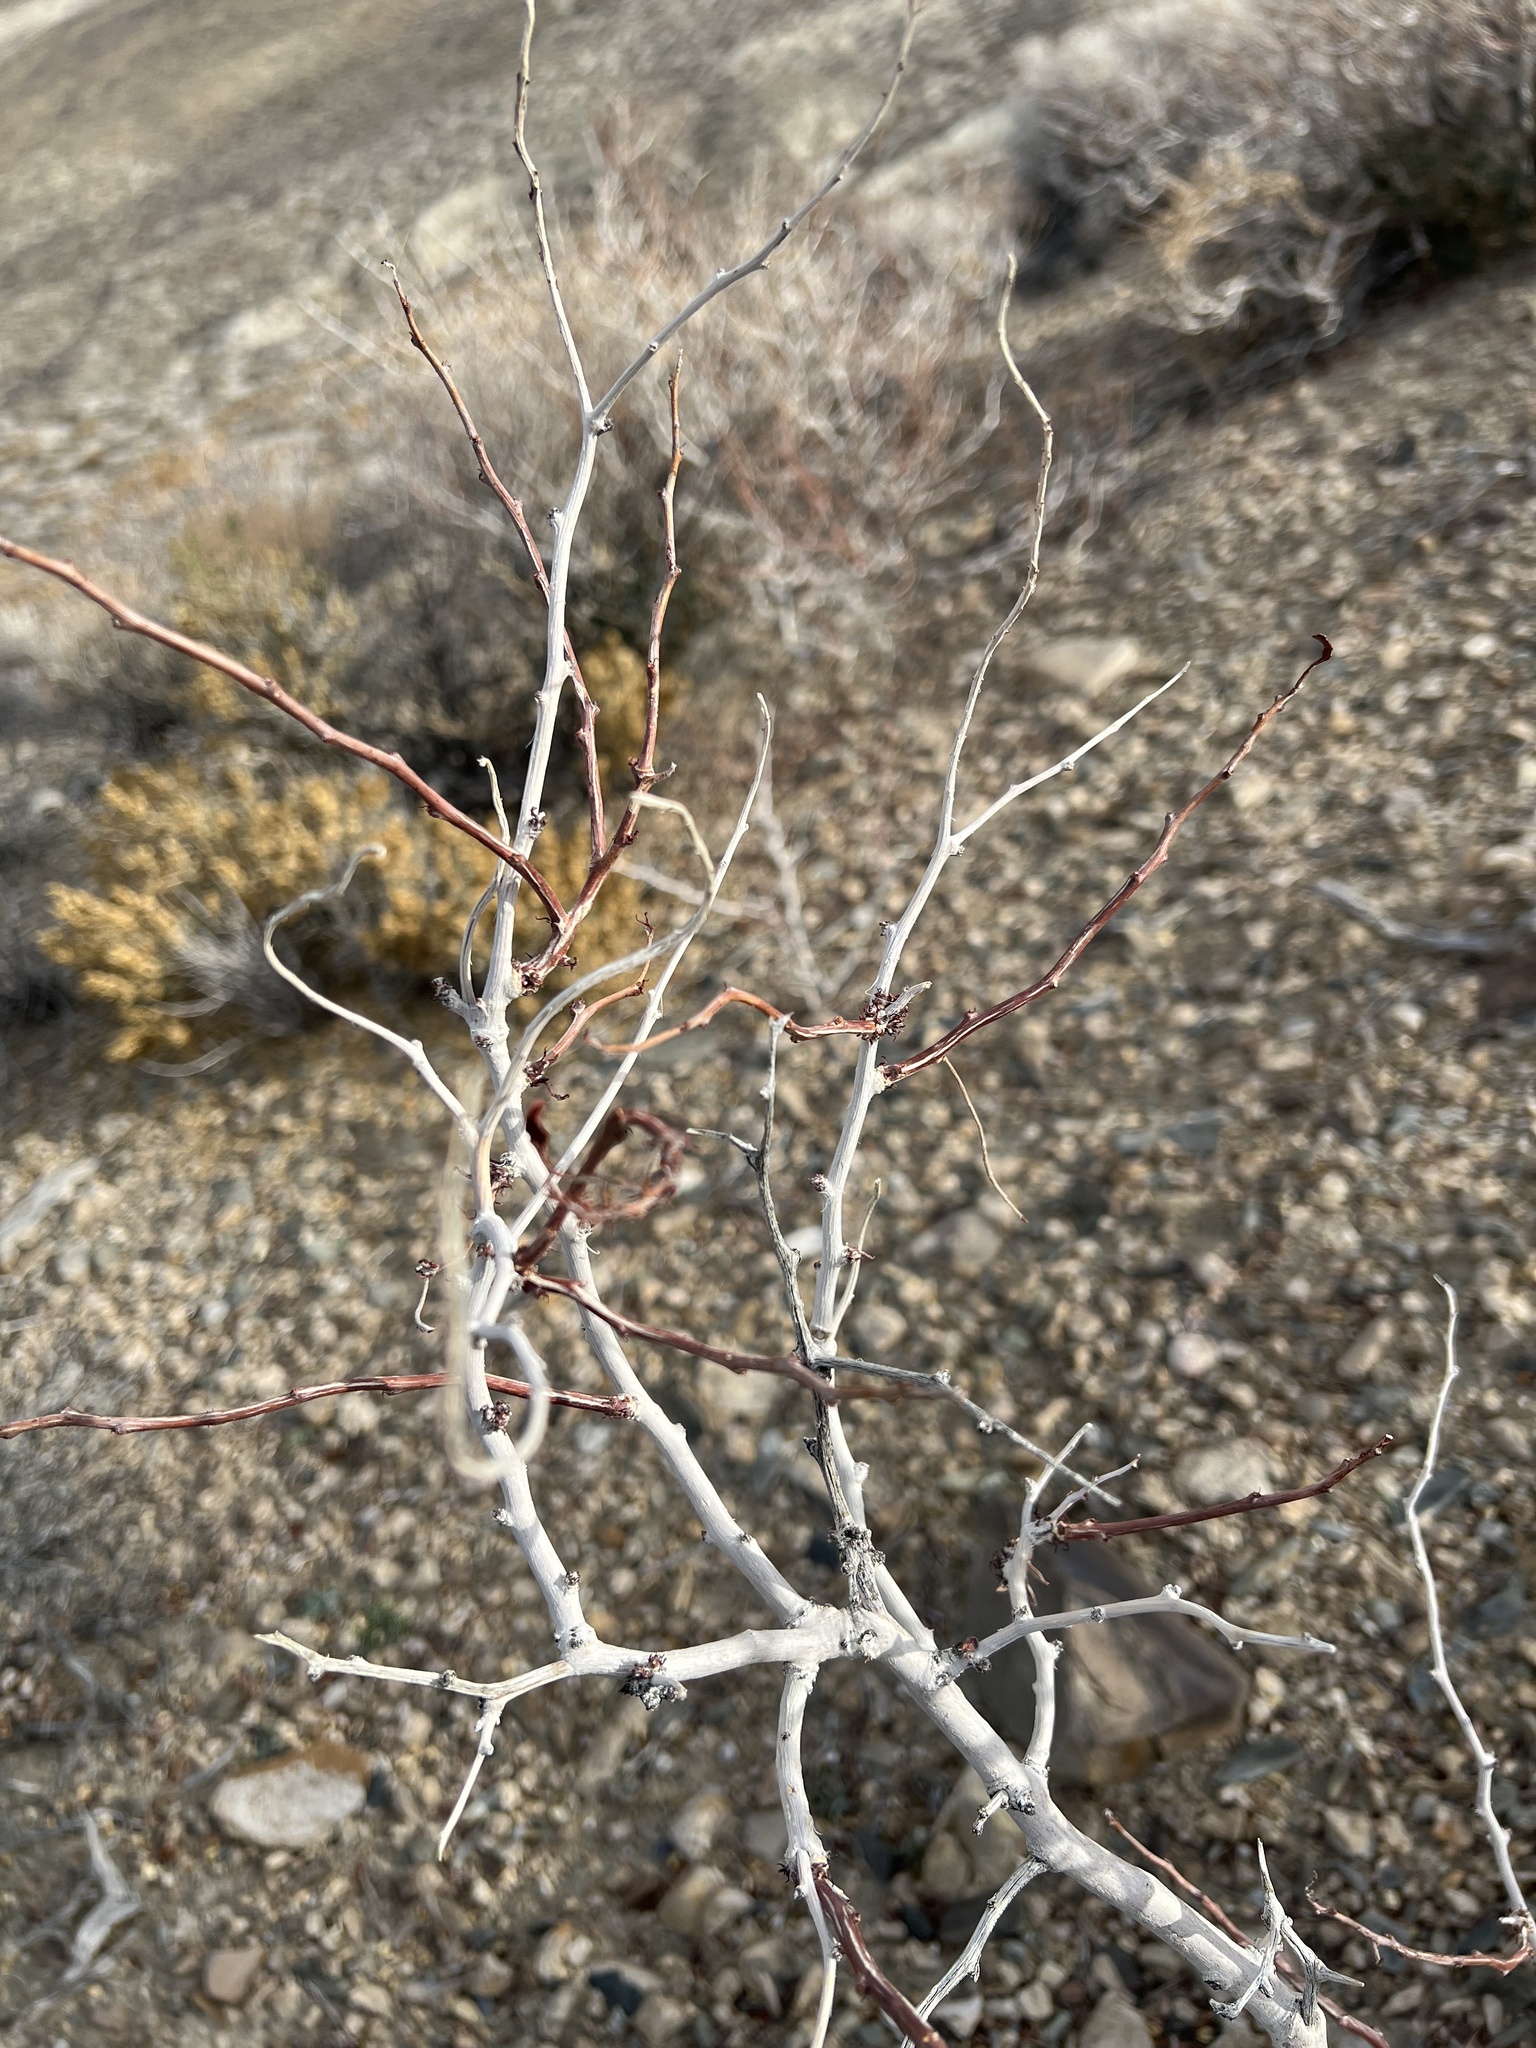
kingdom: Plantae
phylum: Tracheophyta
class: Magnoliopsida
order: Fabales
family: Fabaceae
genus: Psorothamnus
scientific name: Psorothamnus arborescens
